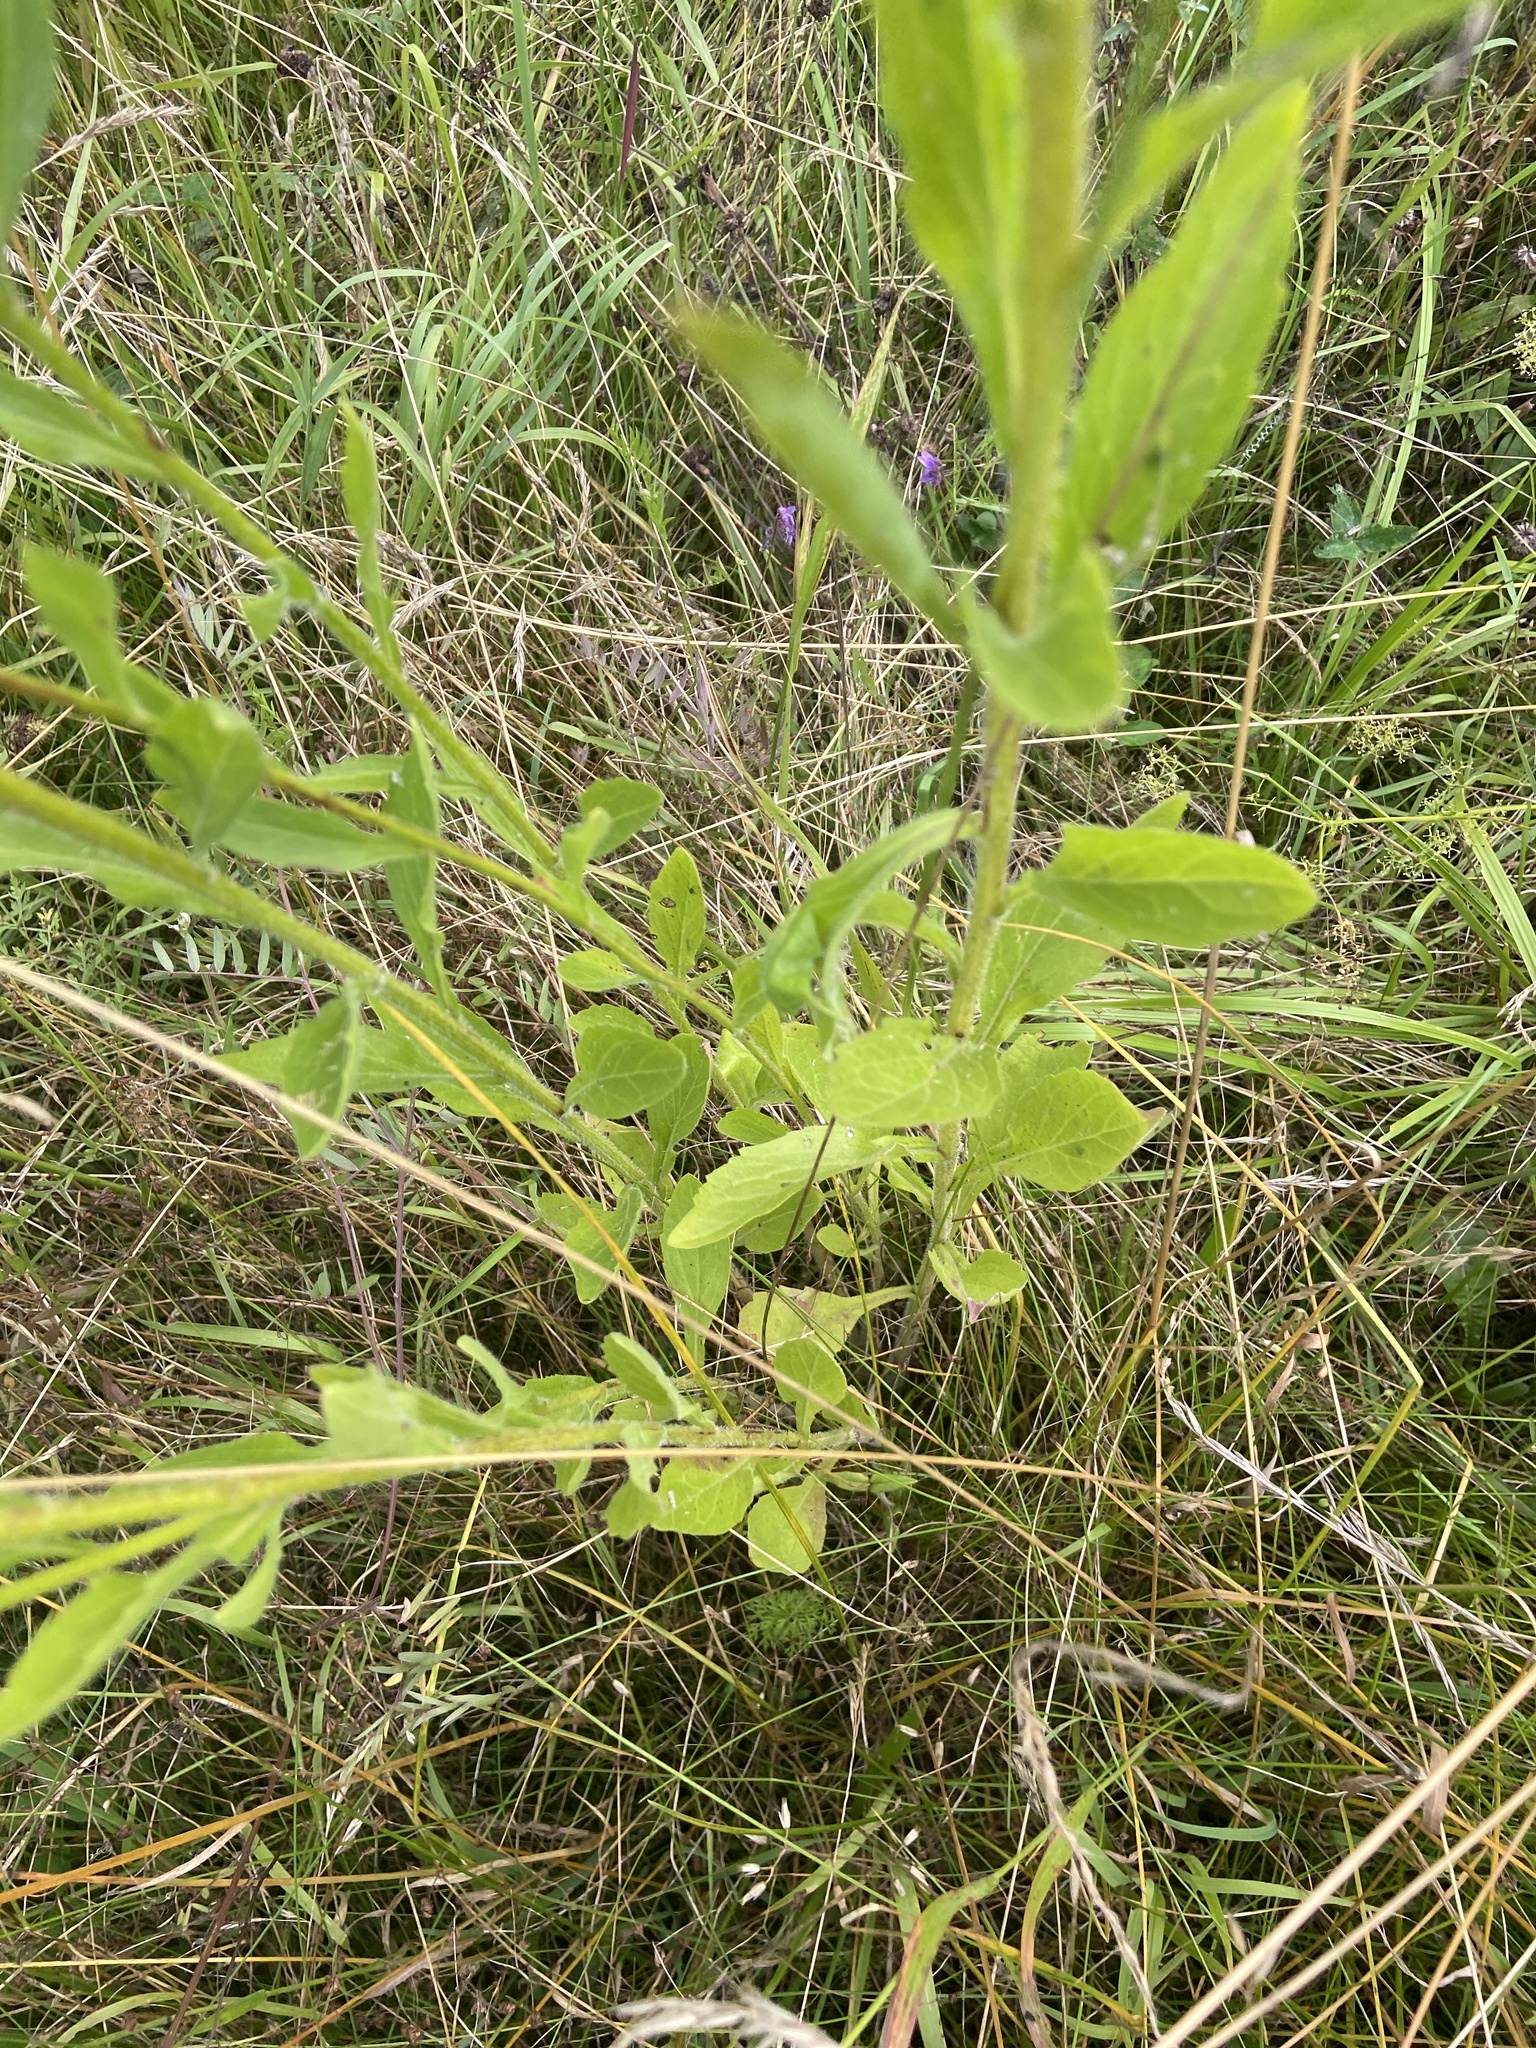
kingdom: Plantae
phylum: Tracheophyta
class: Magnoliopsida
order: Asterales
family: Asteraceae
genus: Erigeron
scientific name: Erigeron annuus
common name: Tall fleabane
